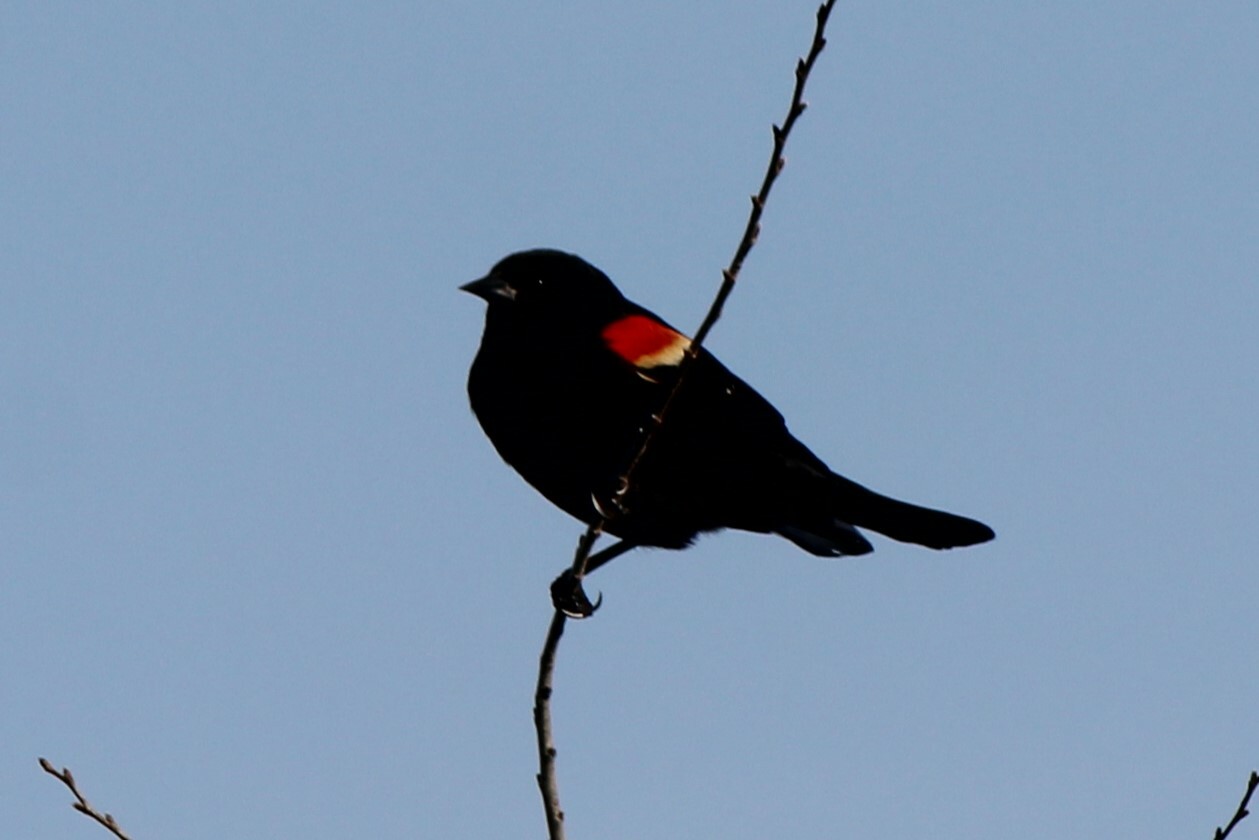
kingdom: Animalia
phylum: Chordata
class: Aves
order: Passeriformes
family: Icteridae
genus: Agelaius
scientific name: Agelaius phoeniceus
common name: Red-winged blackbird
